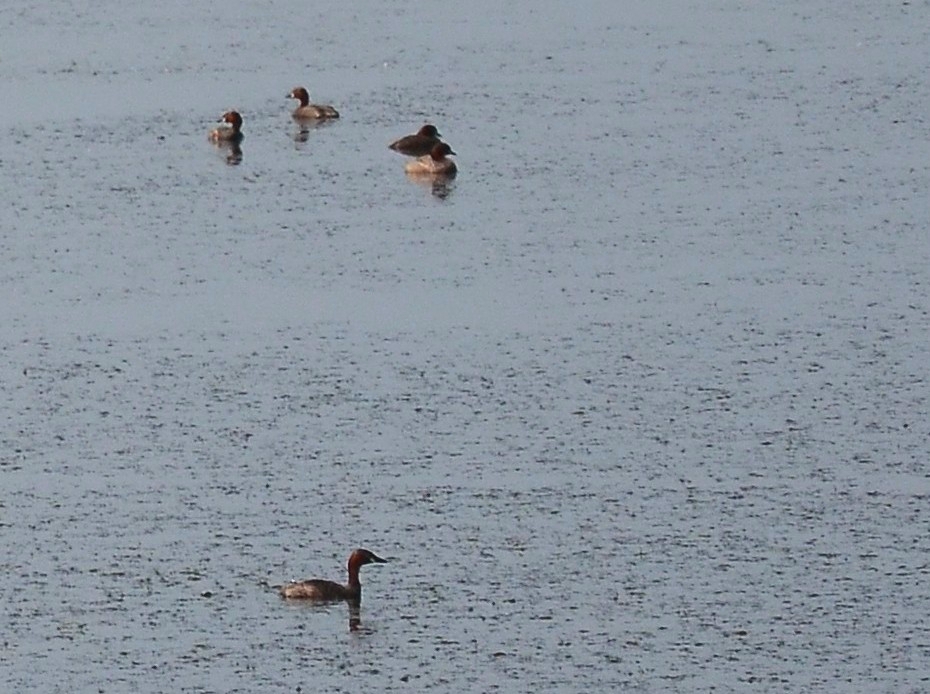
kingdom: Animalia
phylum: Chordata
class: Aves
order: Podicipediformes
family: Podicipedidae
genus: Tachybaptus
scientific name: Tachybaptus ruficollis
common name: Little grebe
